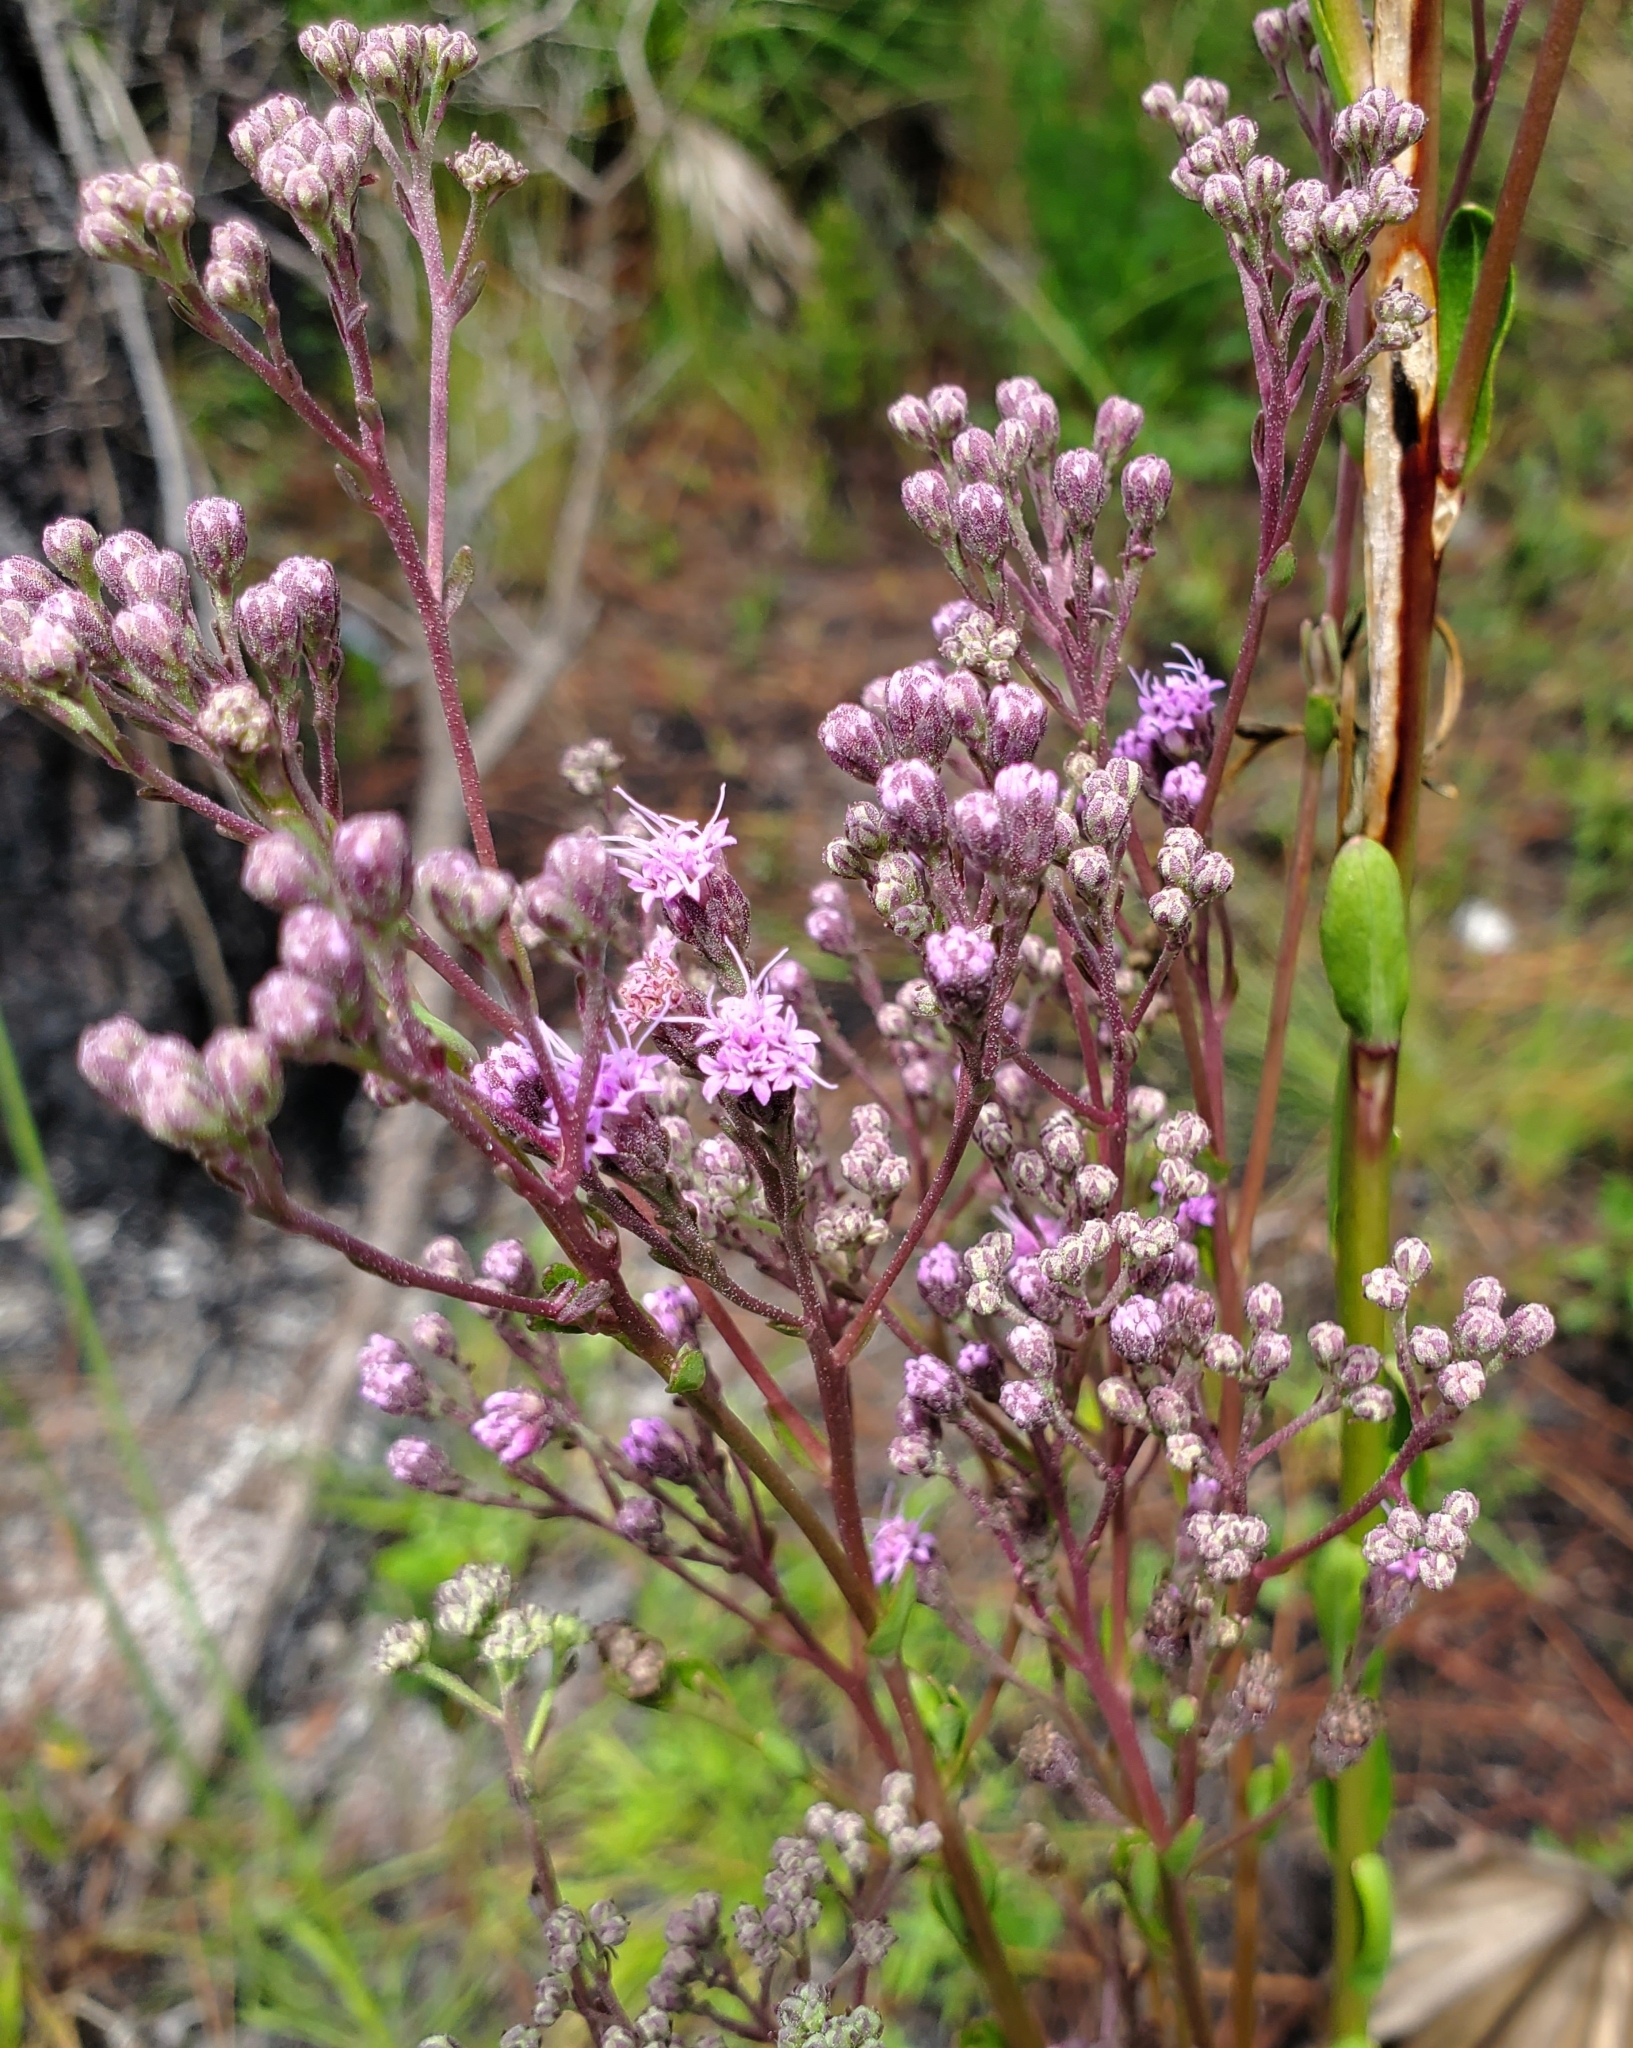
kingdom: Plantae
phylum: Tracheophyta
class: Magnoliopsida
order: Asterales
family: Asteraceae
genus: Carphephorus
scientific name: Carphephorus odoratissimus
